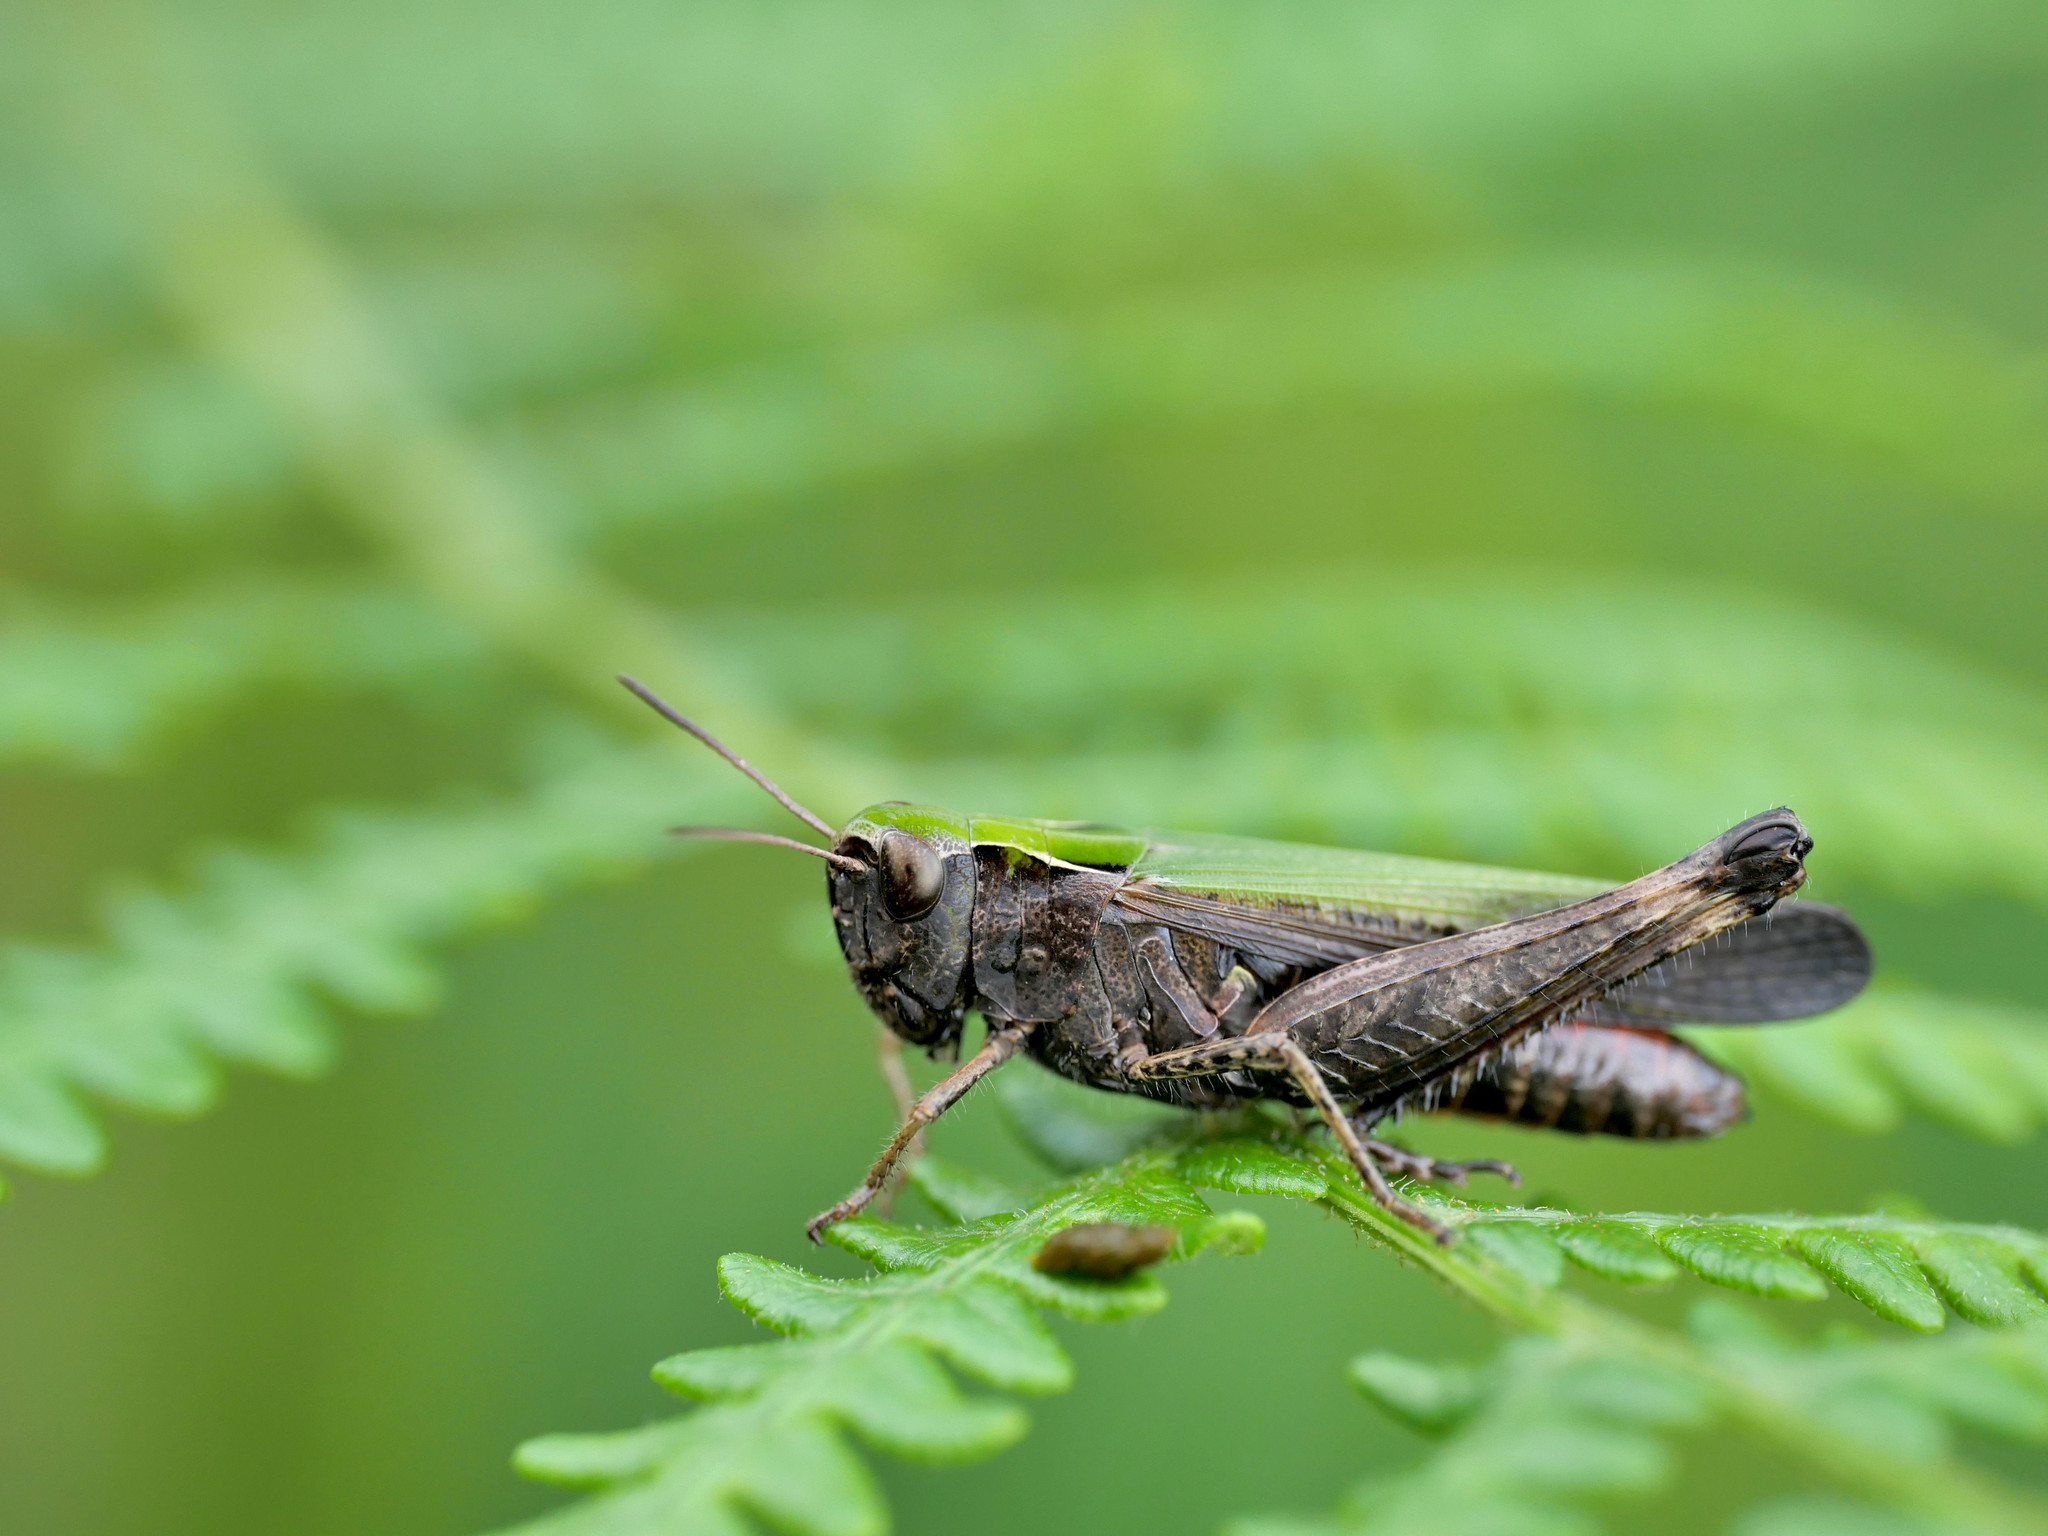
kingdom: Animalia
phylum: Arthropoda
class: Insecta
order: Orthoptera
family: Acrididae
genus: Omocestus
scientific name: Omocestus rufipes
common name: Woodland grasshopper
